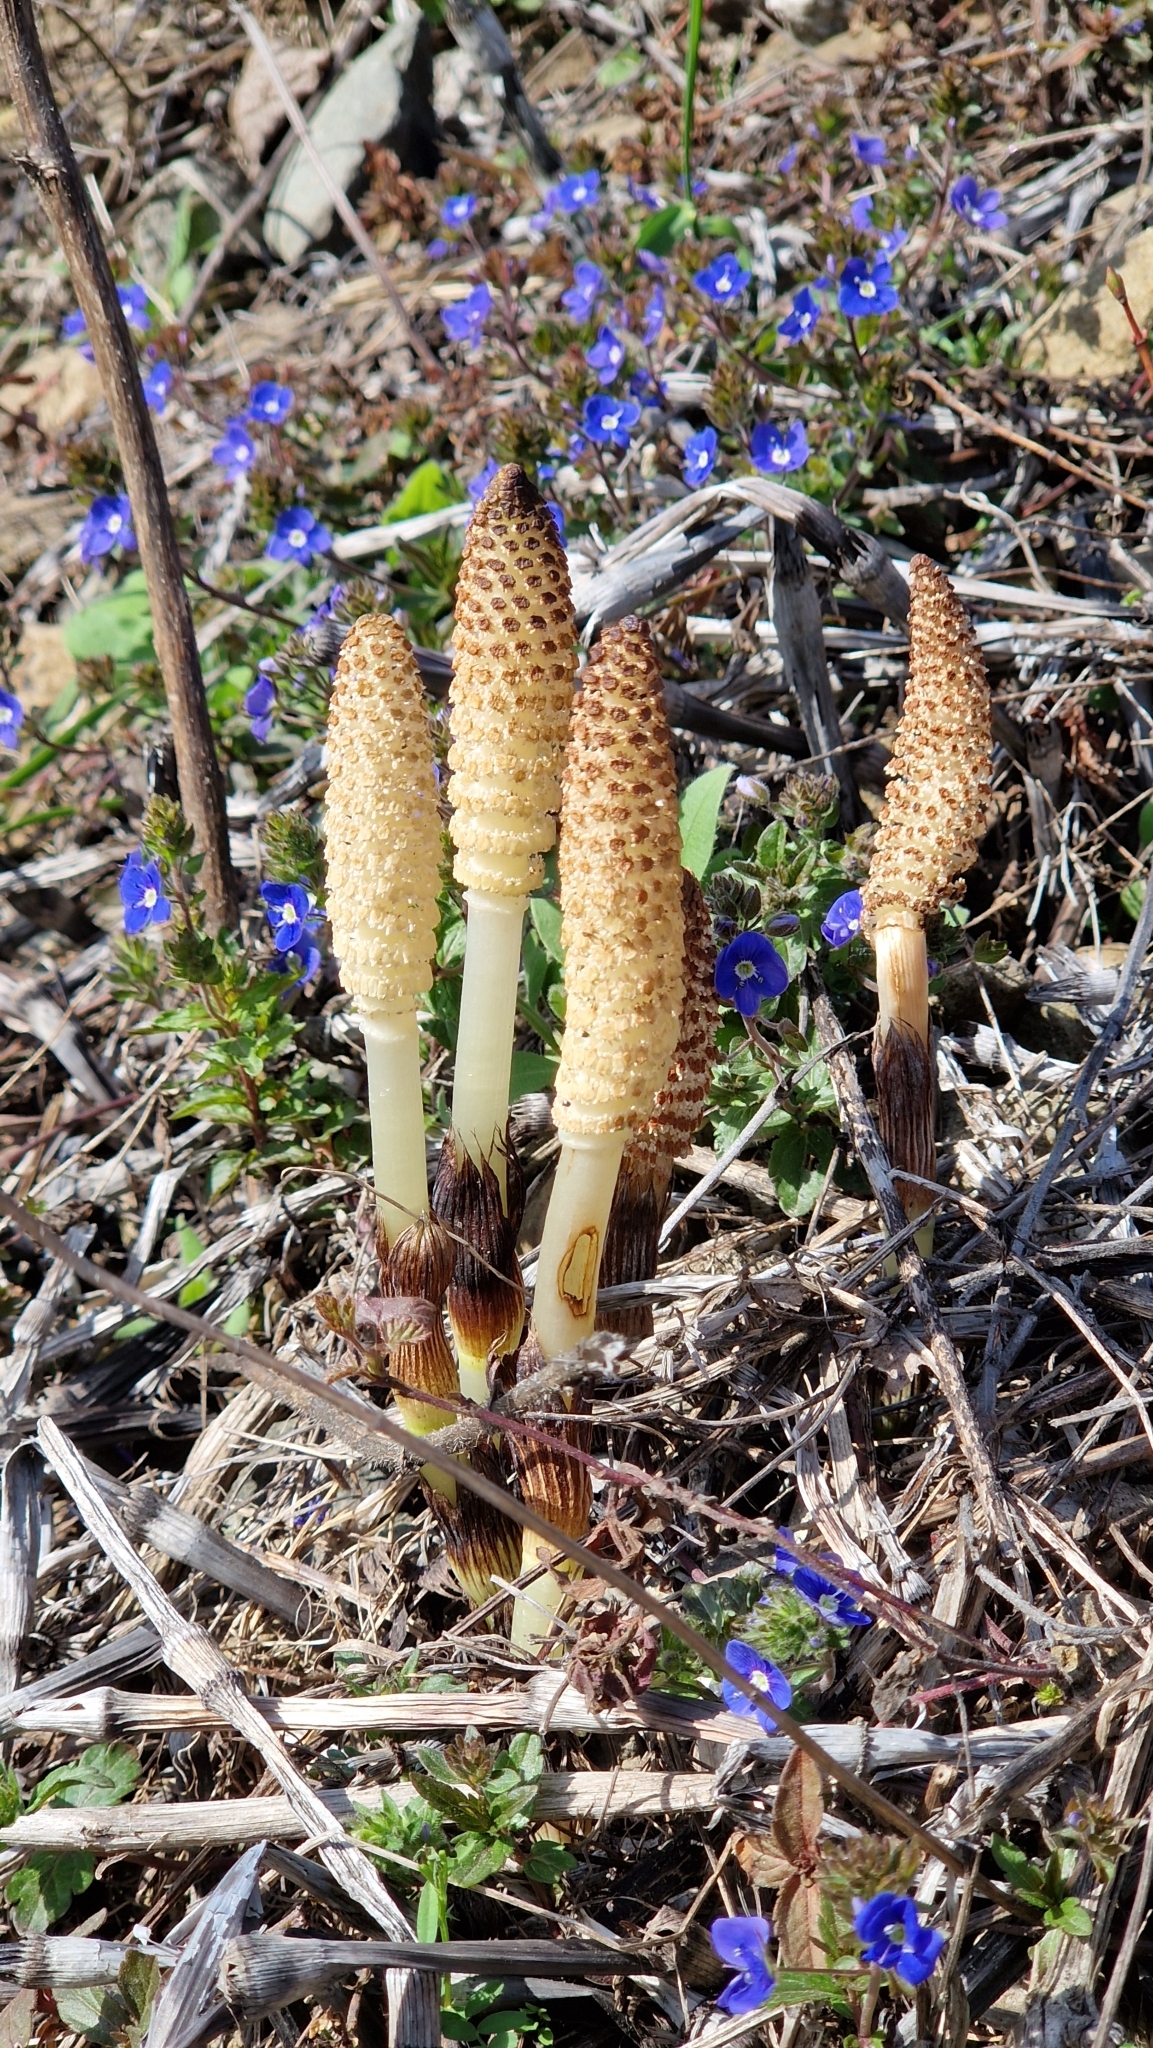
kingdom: Plantae
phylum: Tracheophyta
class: Polypodiopsida
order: Equisetales
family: Equisetaceae
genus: Equisetum
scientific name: Equisetum telmateia
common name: Great horsetail
